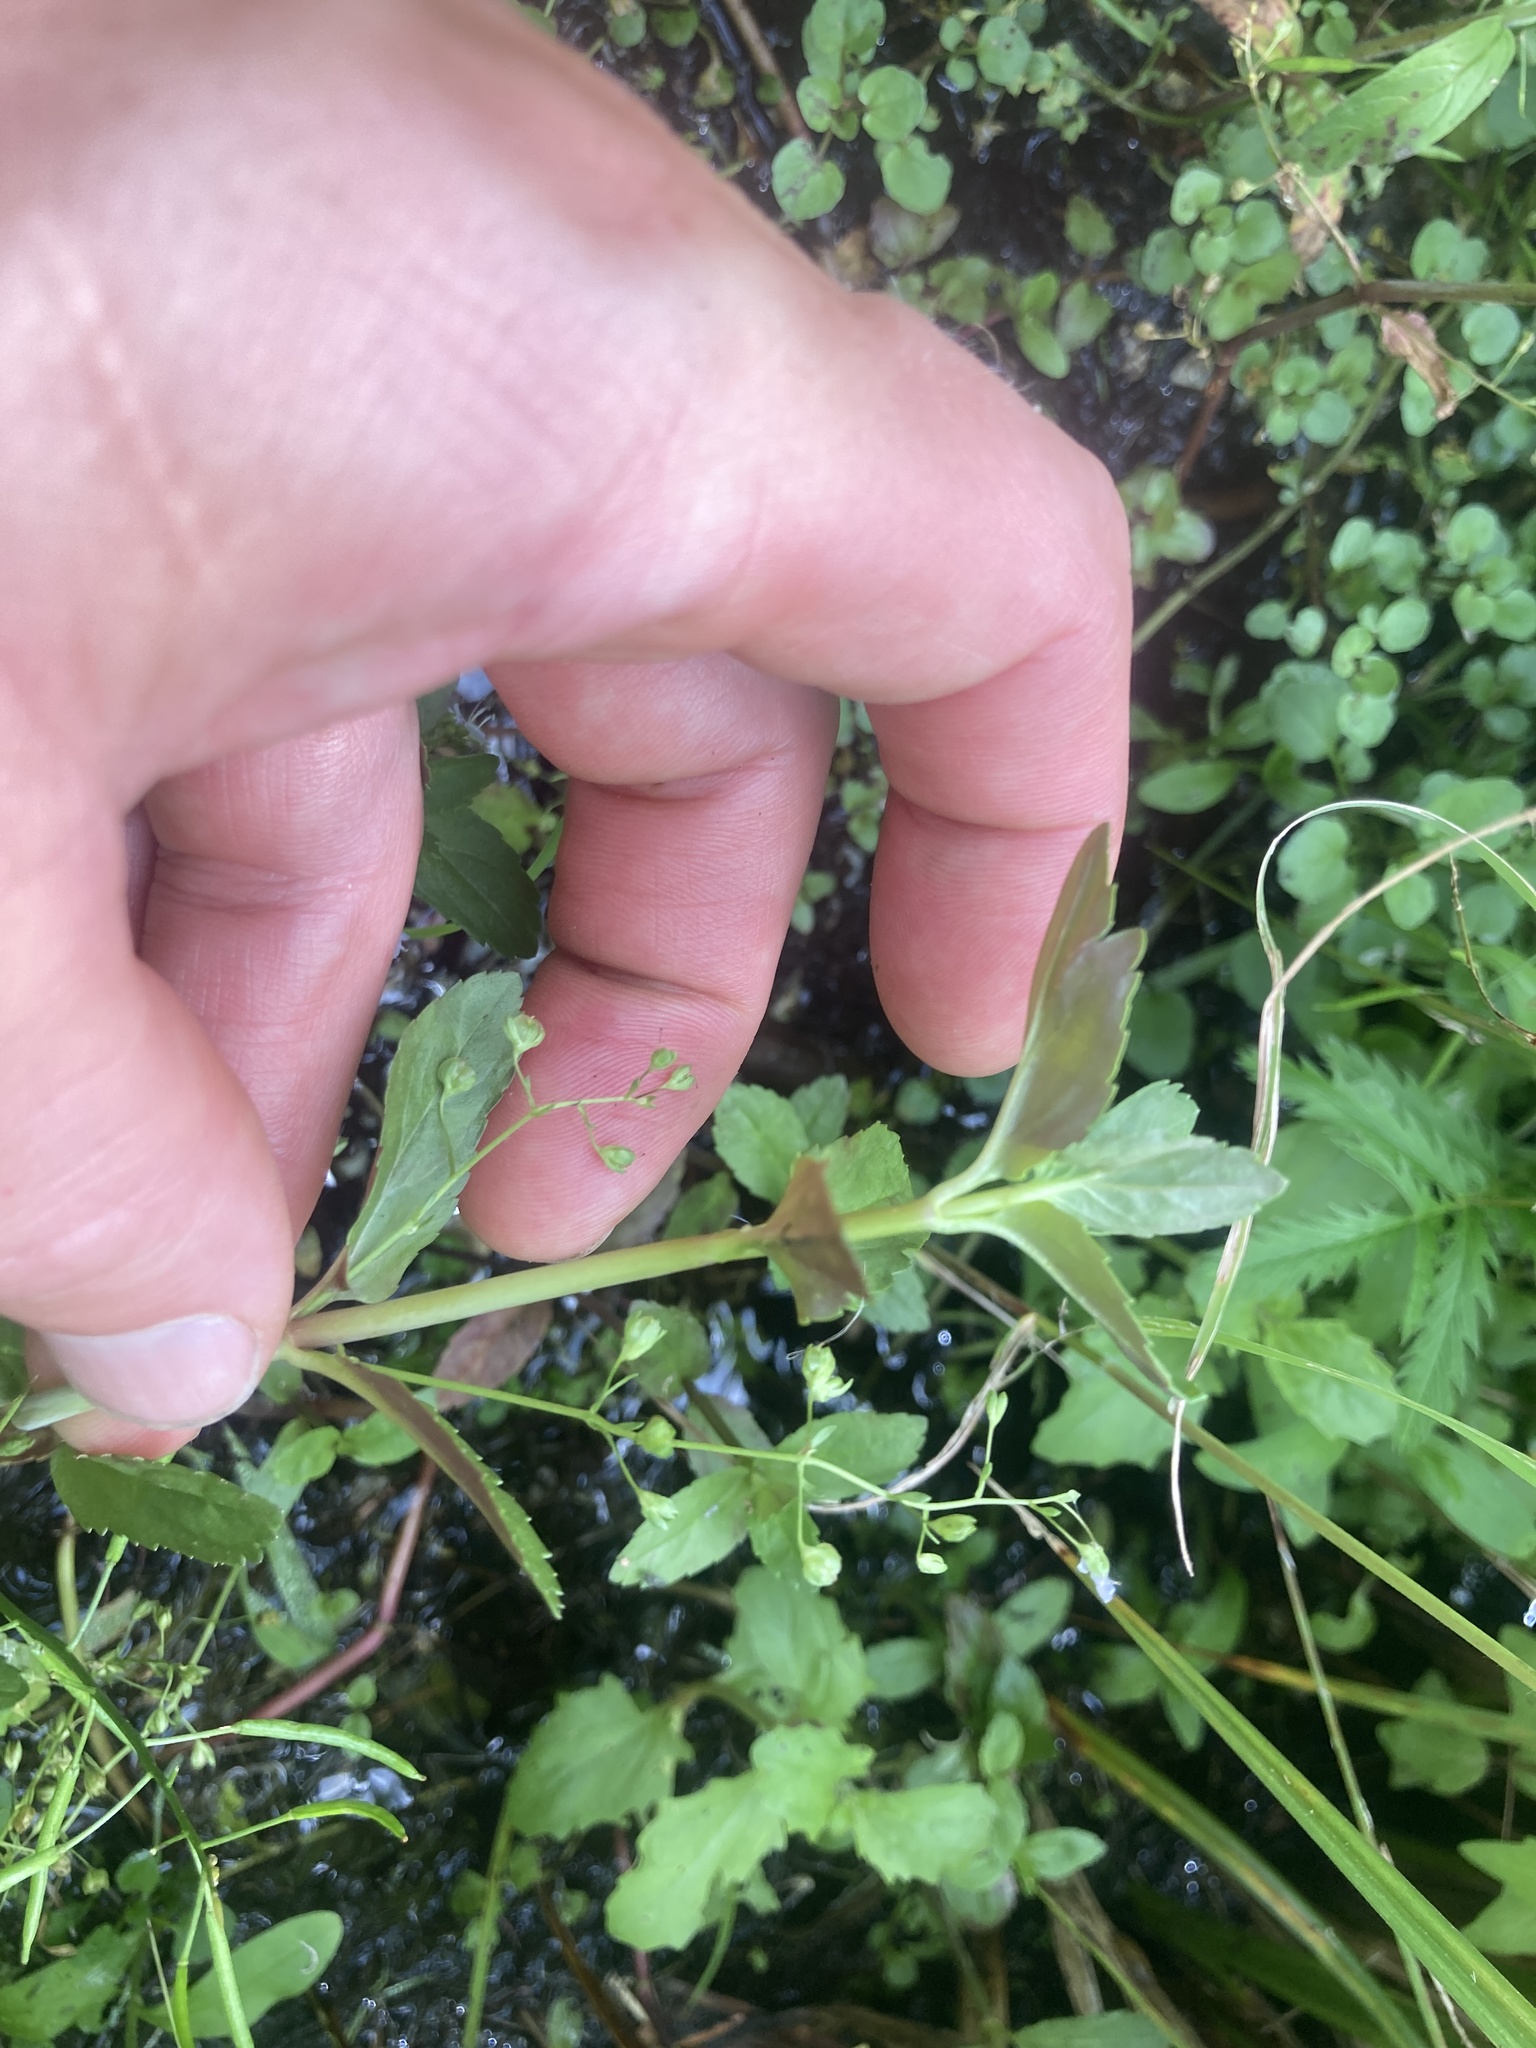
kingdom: Plantae
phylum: Tracheophyta
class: Magnoliopsida
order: Lamiales
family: Plantaginaceae
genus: Veronica
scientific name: Veronica americana
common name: American brooklime
